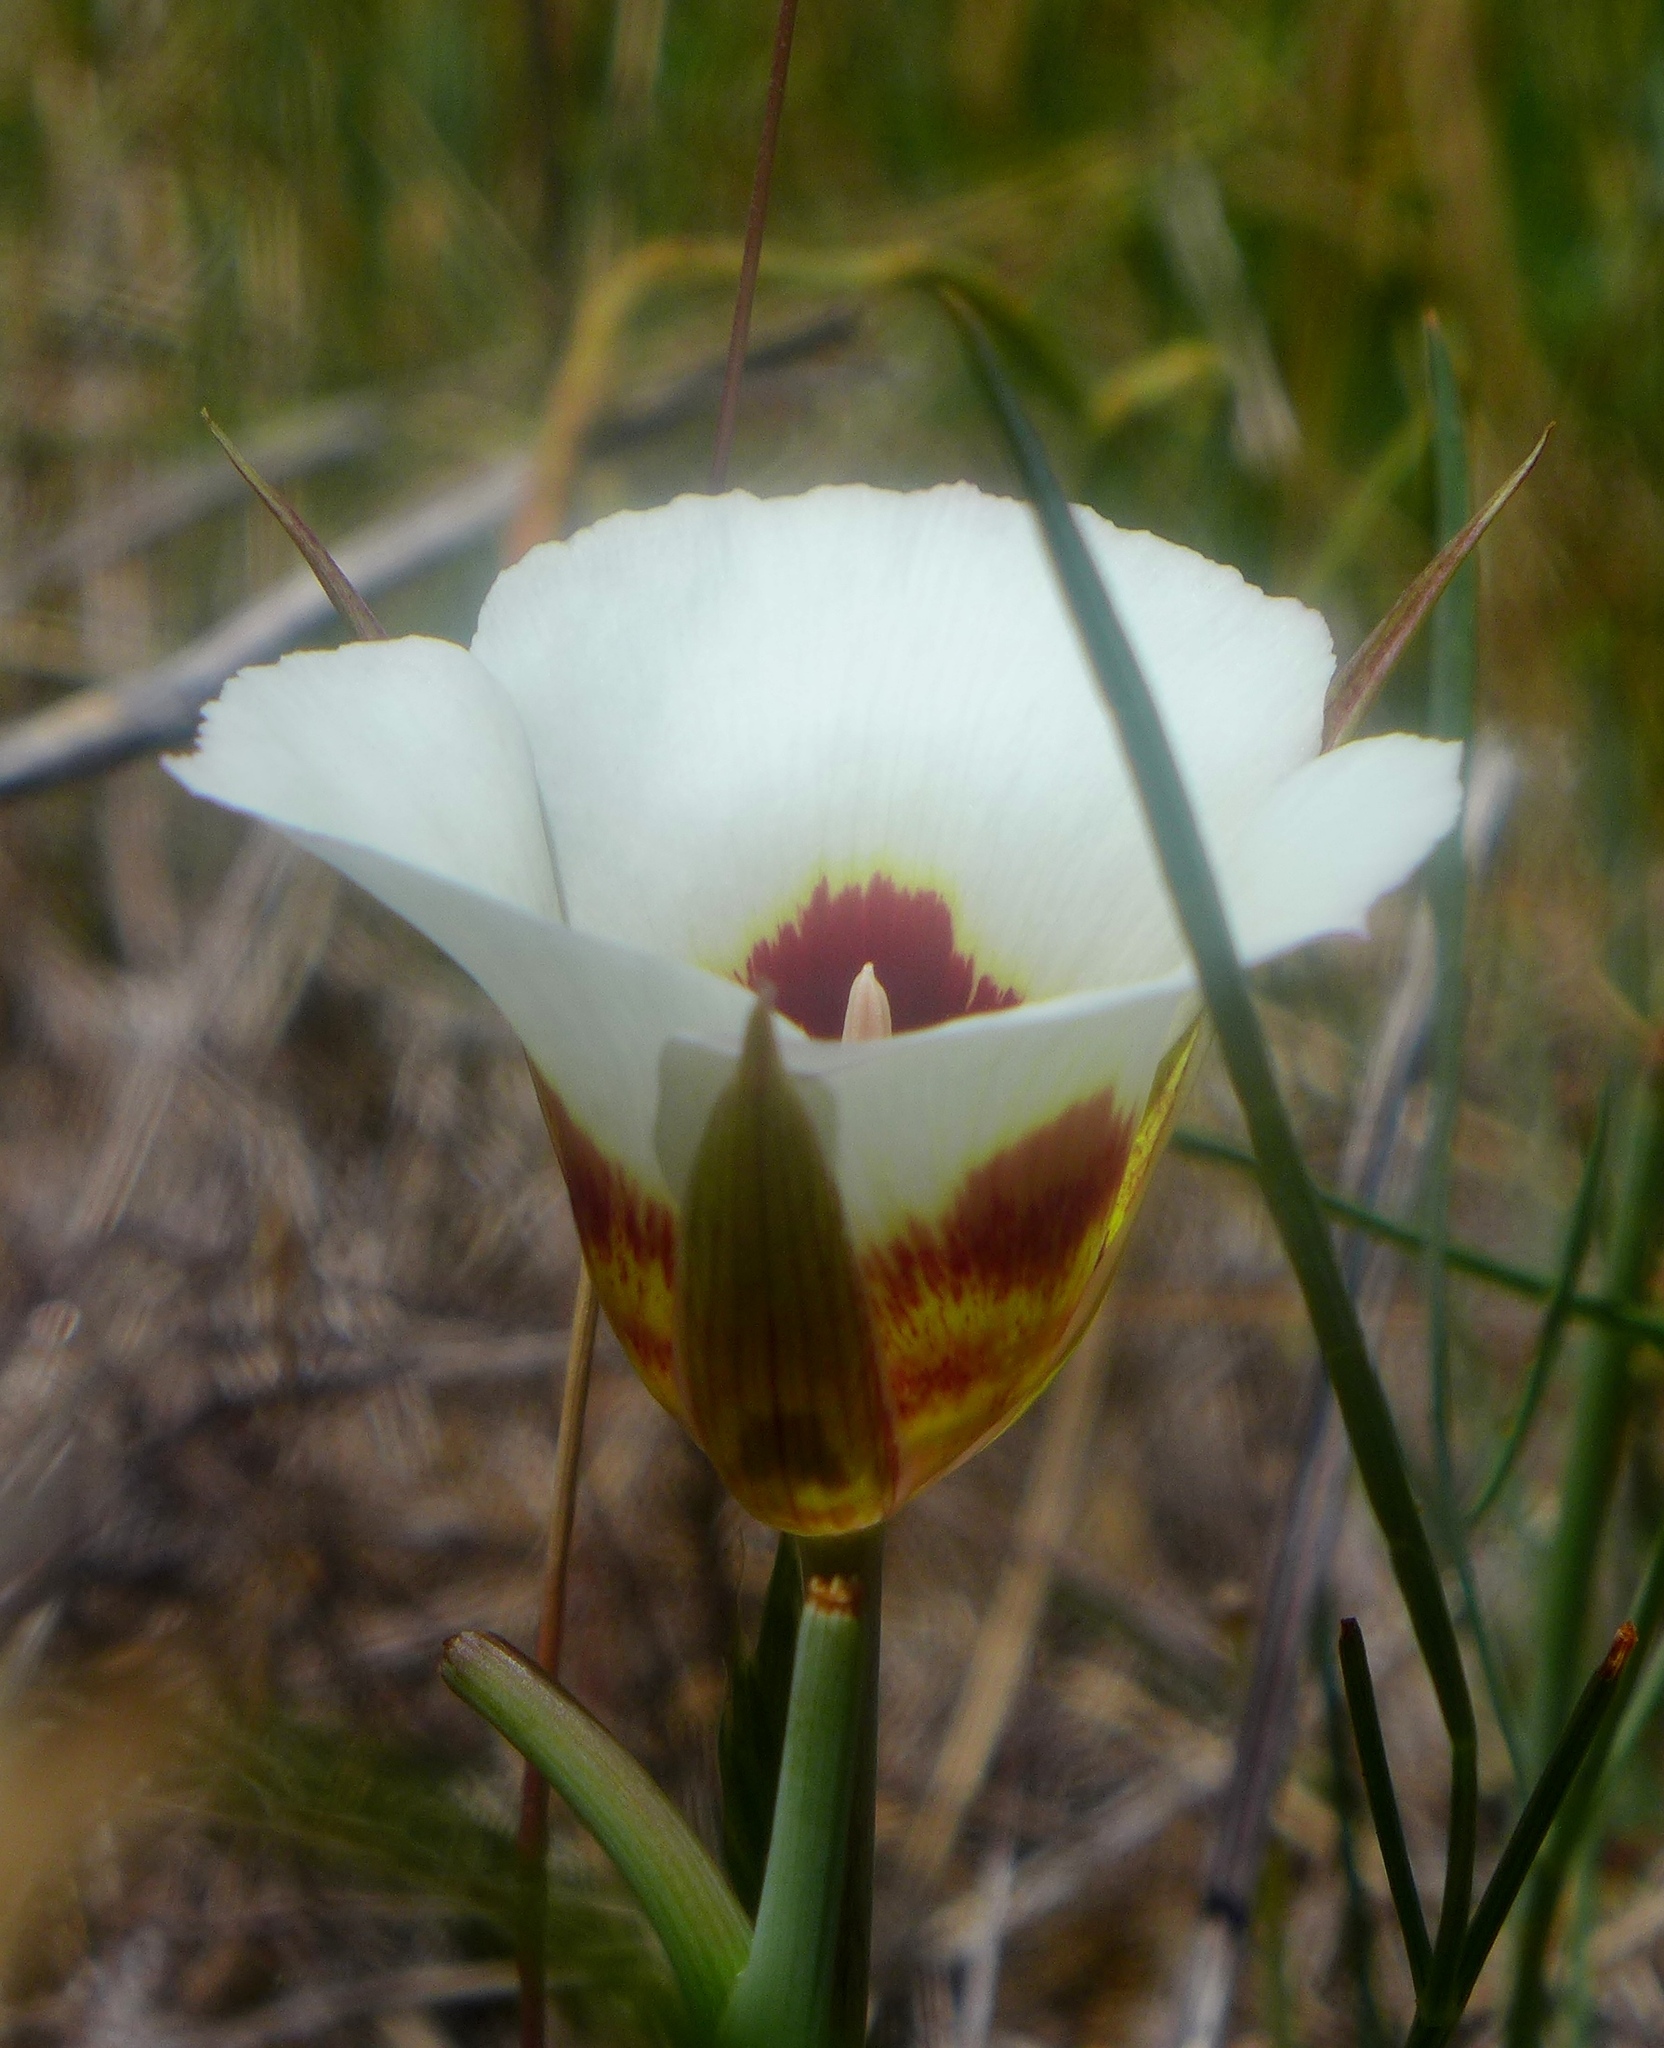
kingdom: Plantae
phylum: Tracheophyta
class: Liliopsida
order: Liliales
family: Liliaceae
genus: Calochortus
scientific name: Calochortus vestae
